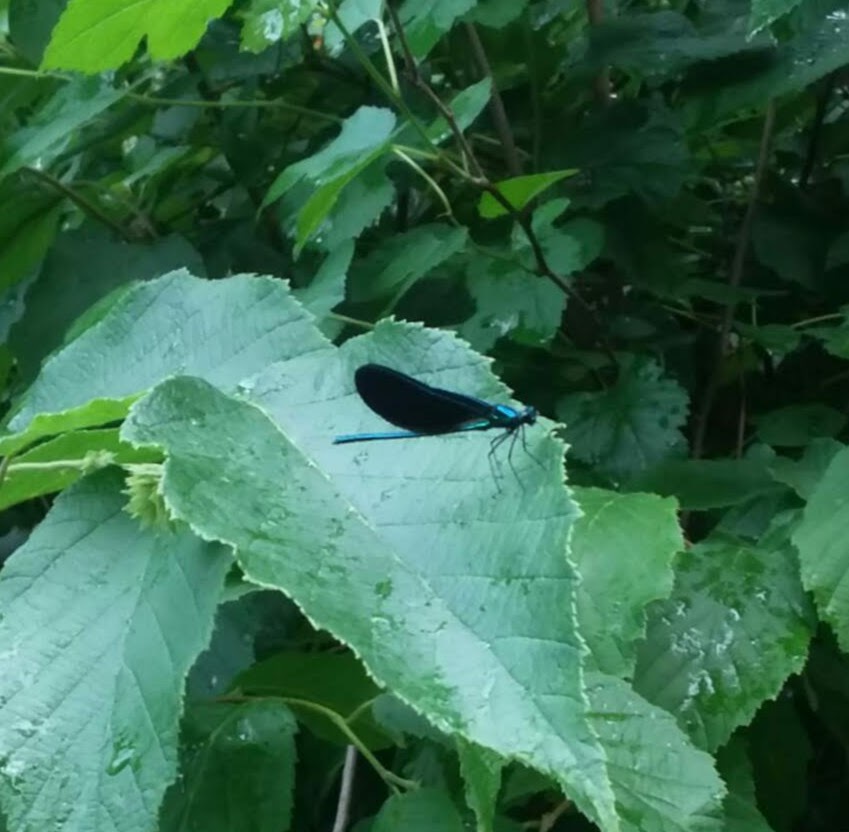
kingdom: Animalia
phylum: Arthropoda
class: Insecta
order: Odonata
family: Calopterygidae
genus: Calopteryx
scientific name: Calopteryx maculata
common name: Ebony jewelwing
